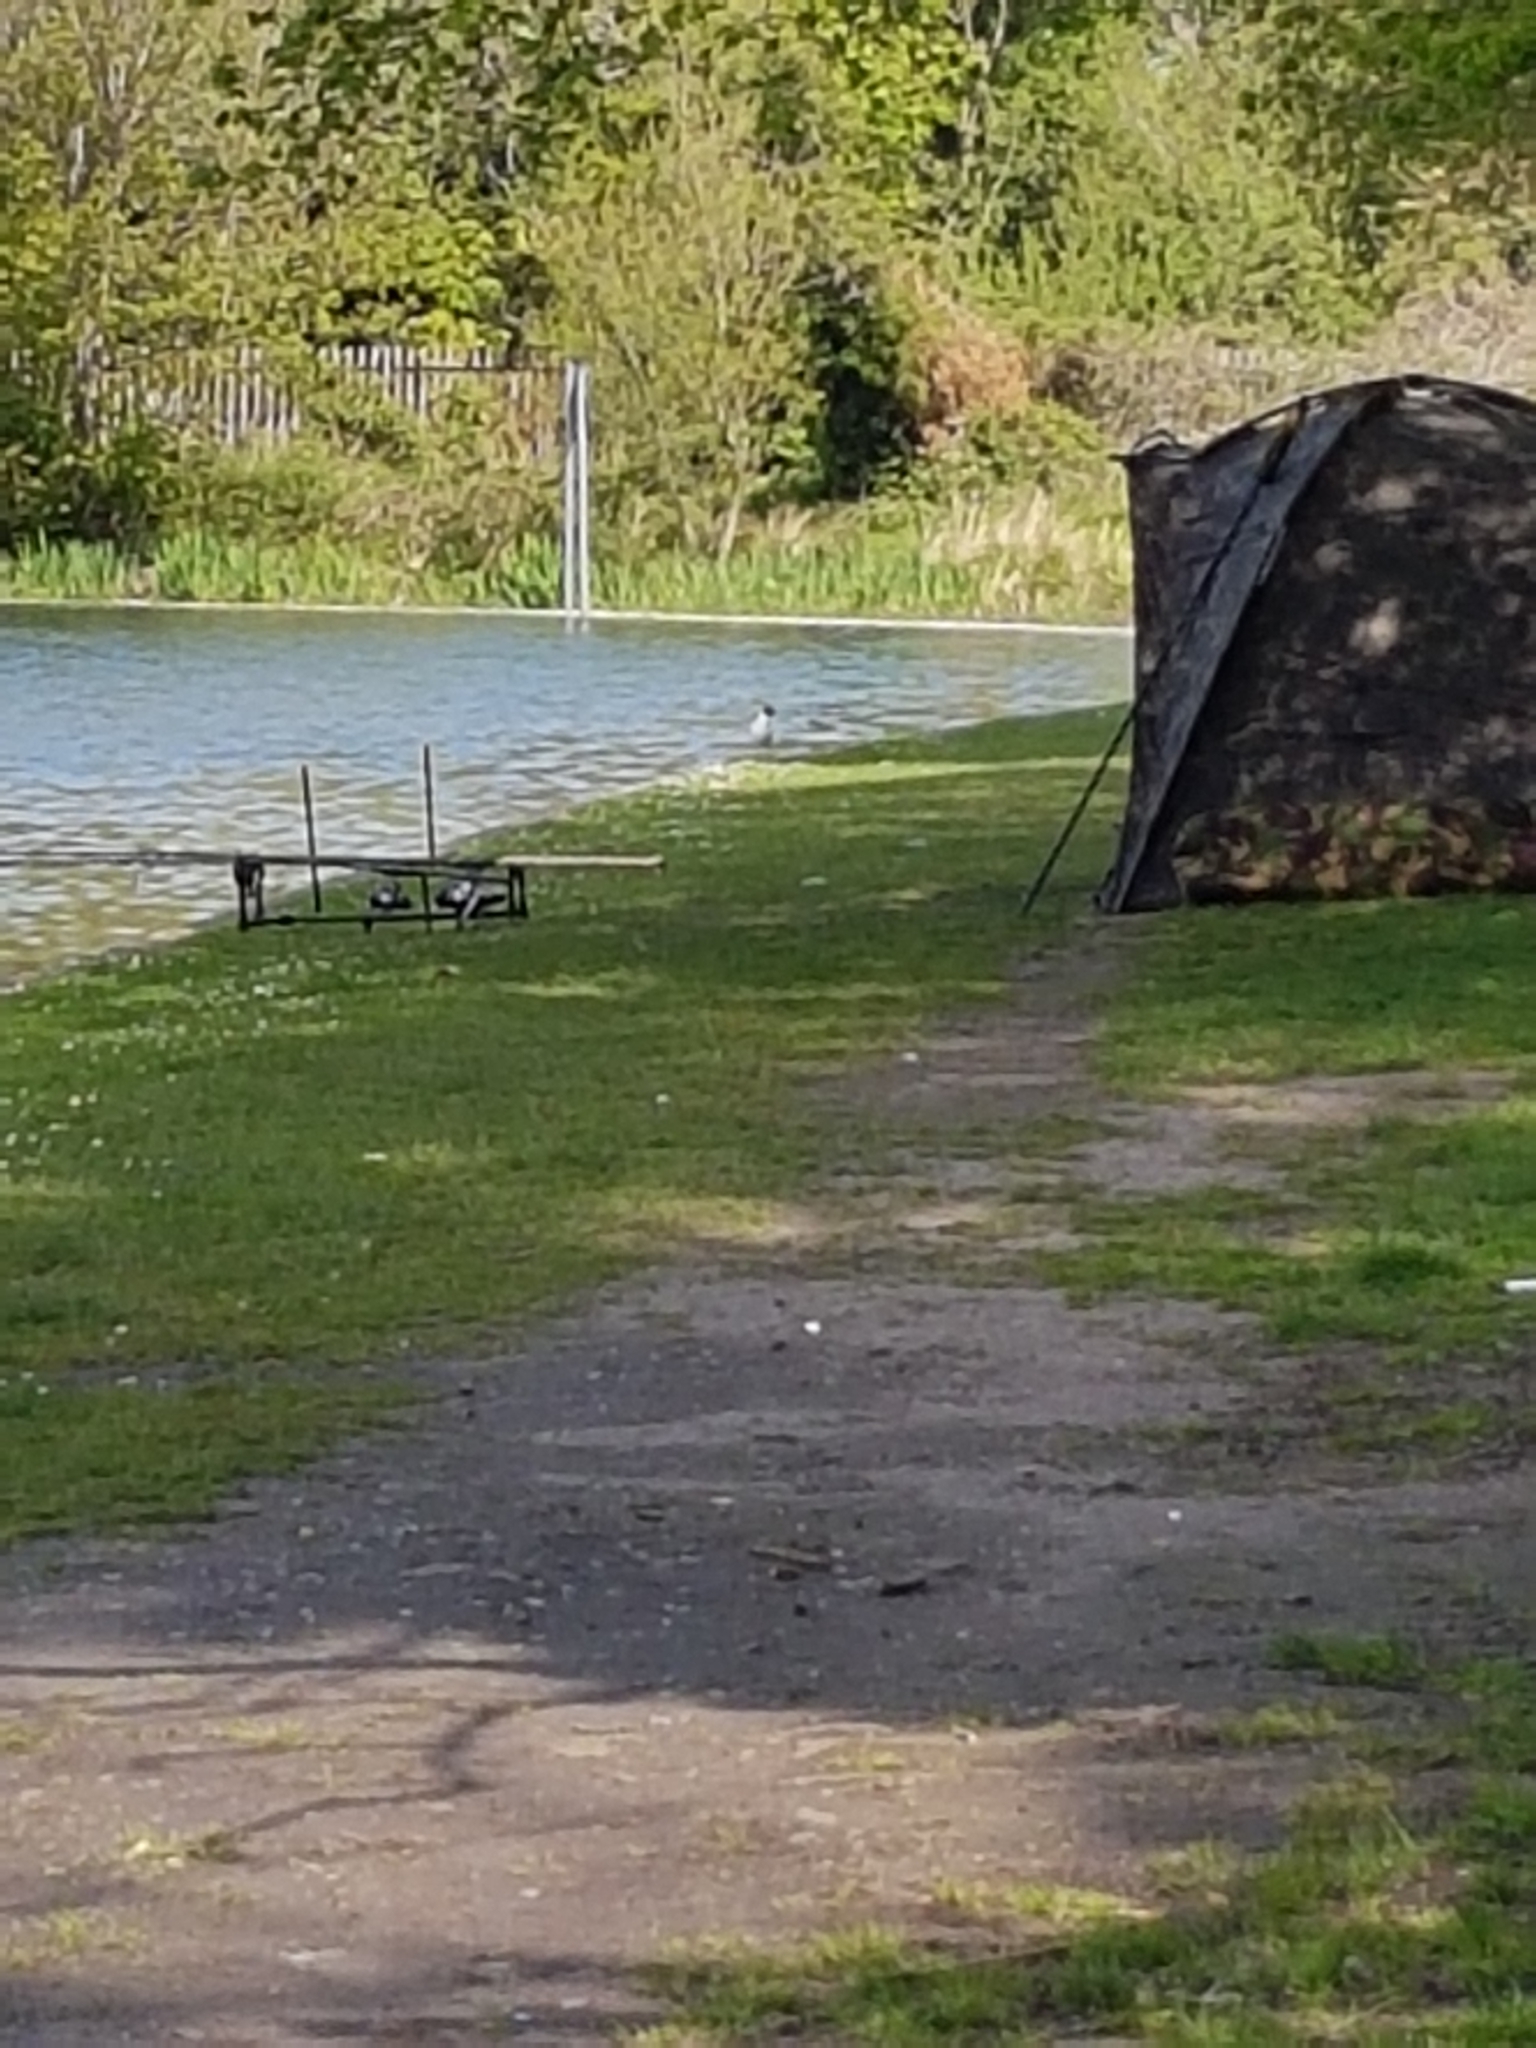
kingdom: Animalia
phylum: Chordata
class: Aves
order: Charadriiformes
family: Laridae
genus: Chroicocephalus
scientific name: Chroicocephalus ridibundus
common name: Black-headed gull
